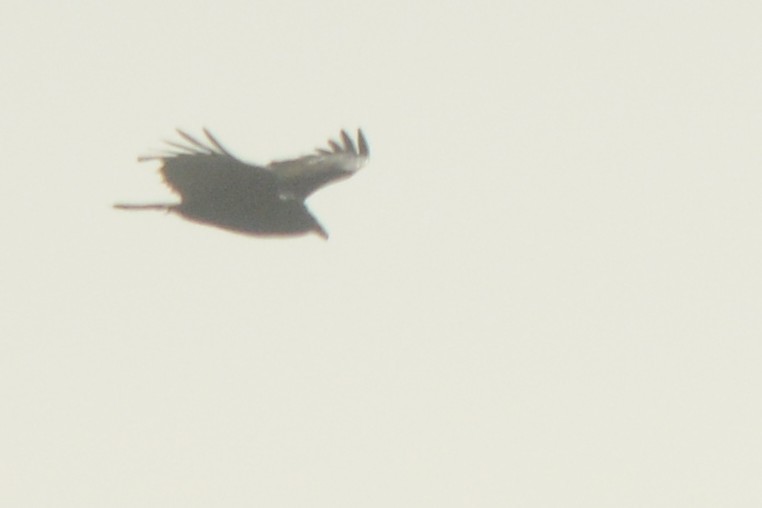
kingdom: Animalia
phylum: Chordata
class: Aves
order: Accipitriformes
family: Cathartidae
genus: Cathartes
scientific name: Cathartes aura
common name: Turkey vulture
